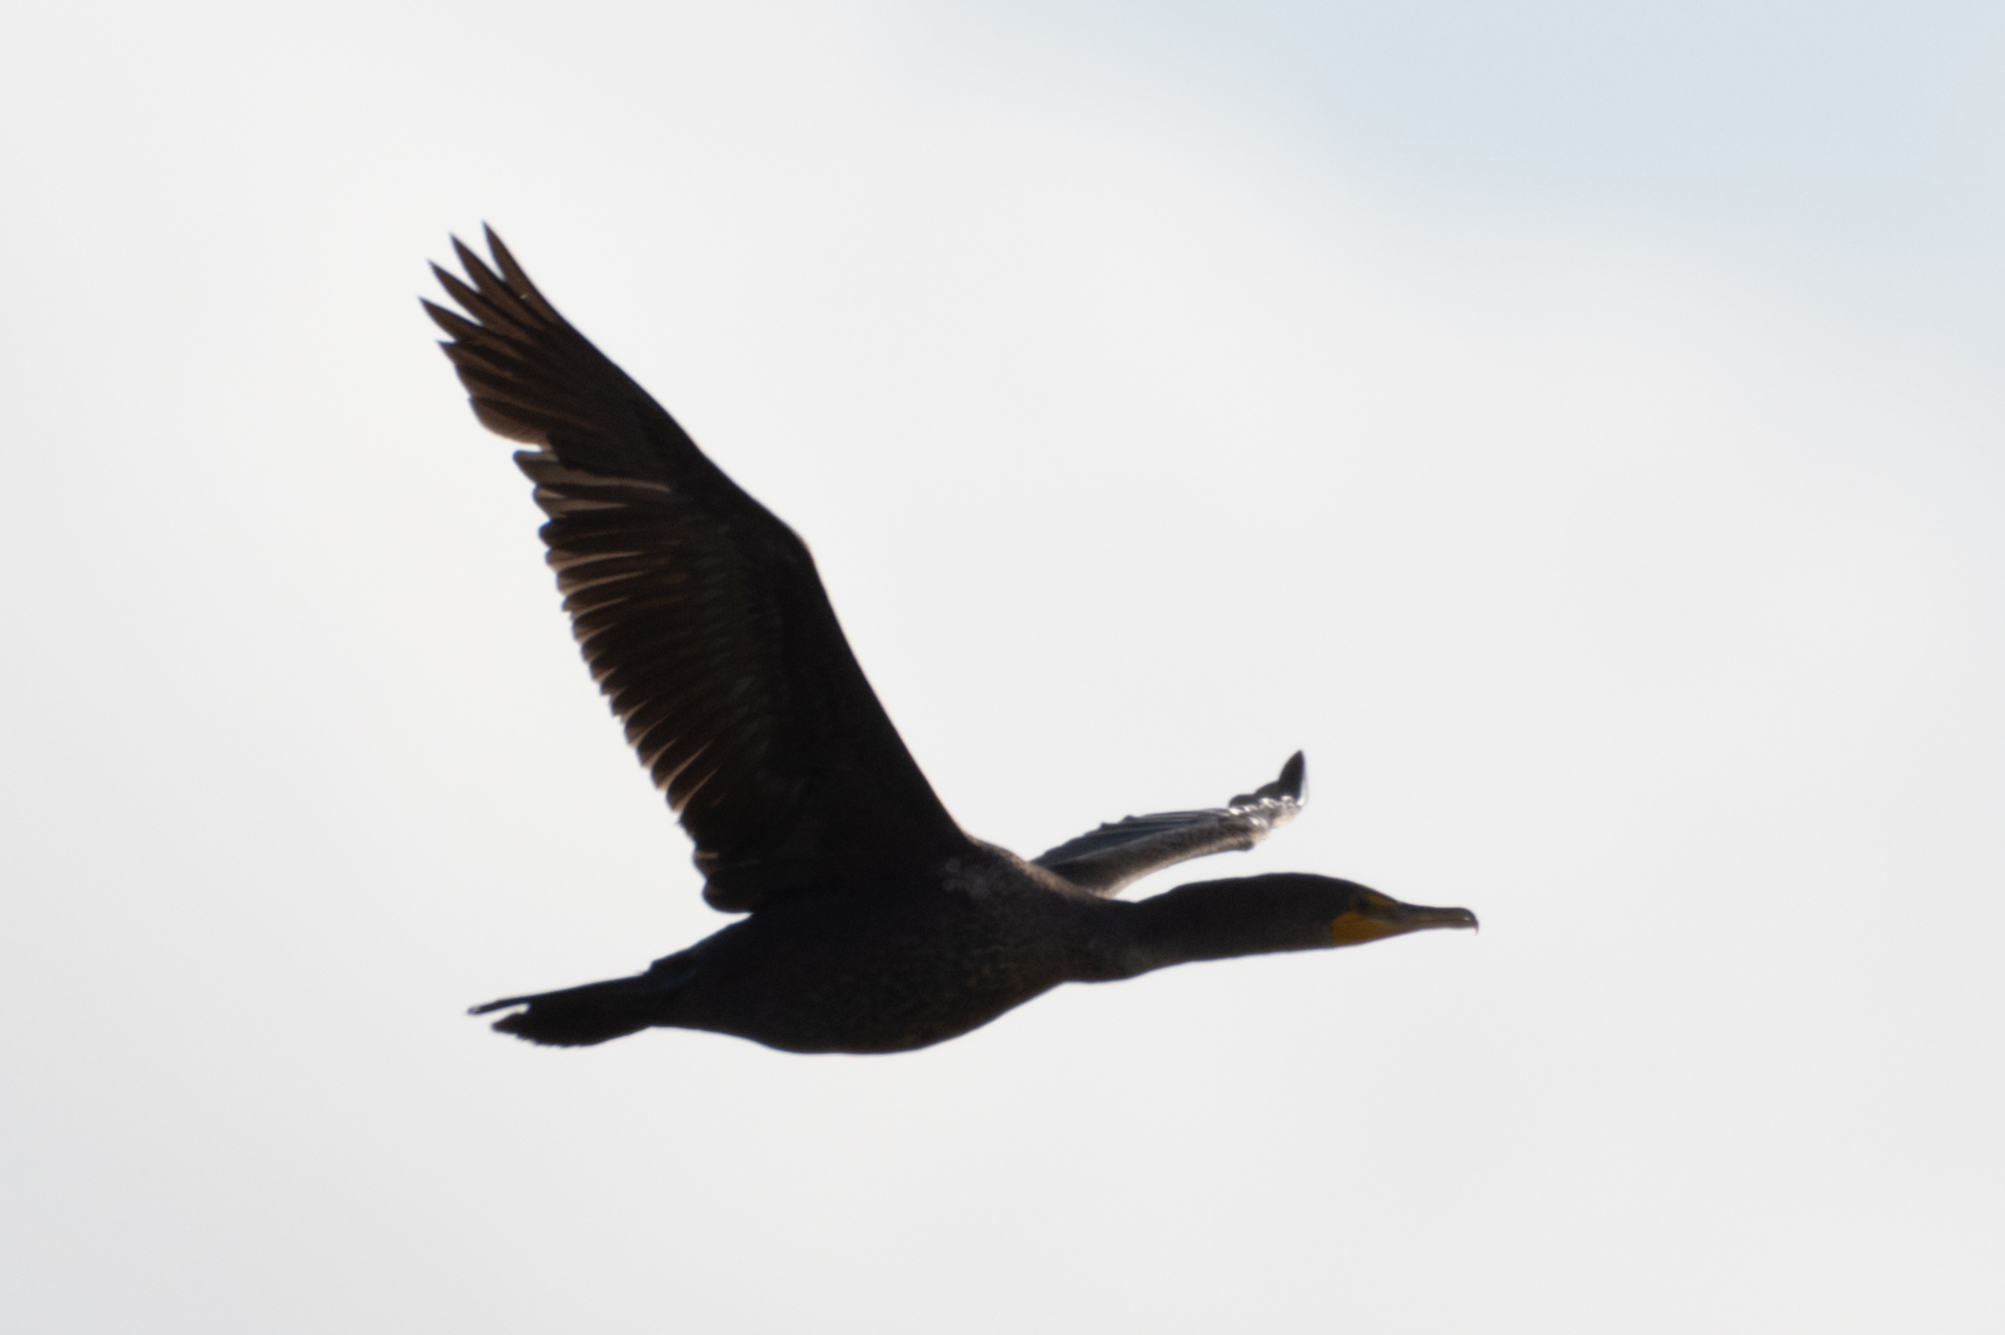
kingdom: Animalia
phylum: Chordata
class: Aves
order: Suliformes
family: Phalacrocoracidae
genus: Phalacrocorax
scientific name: Phalacrocorax auritus
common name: Double-crested cormorant
